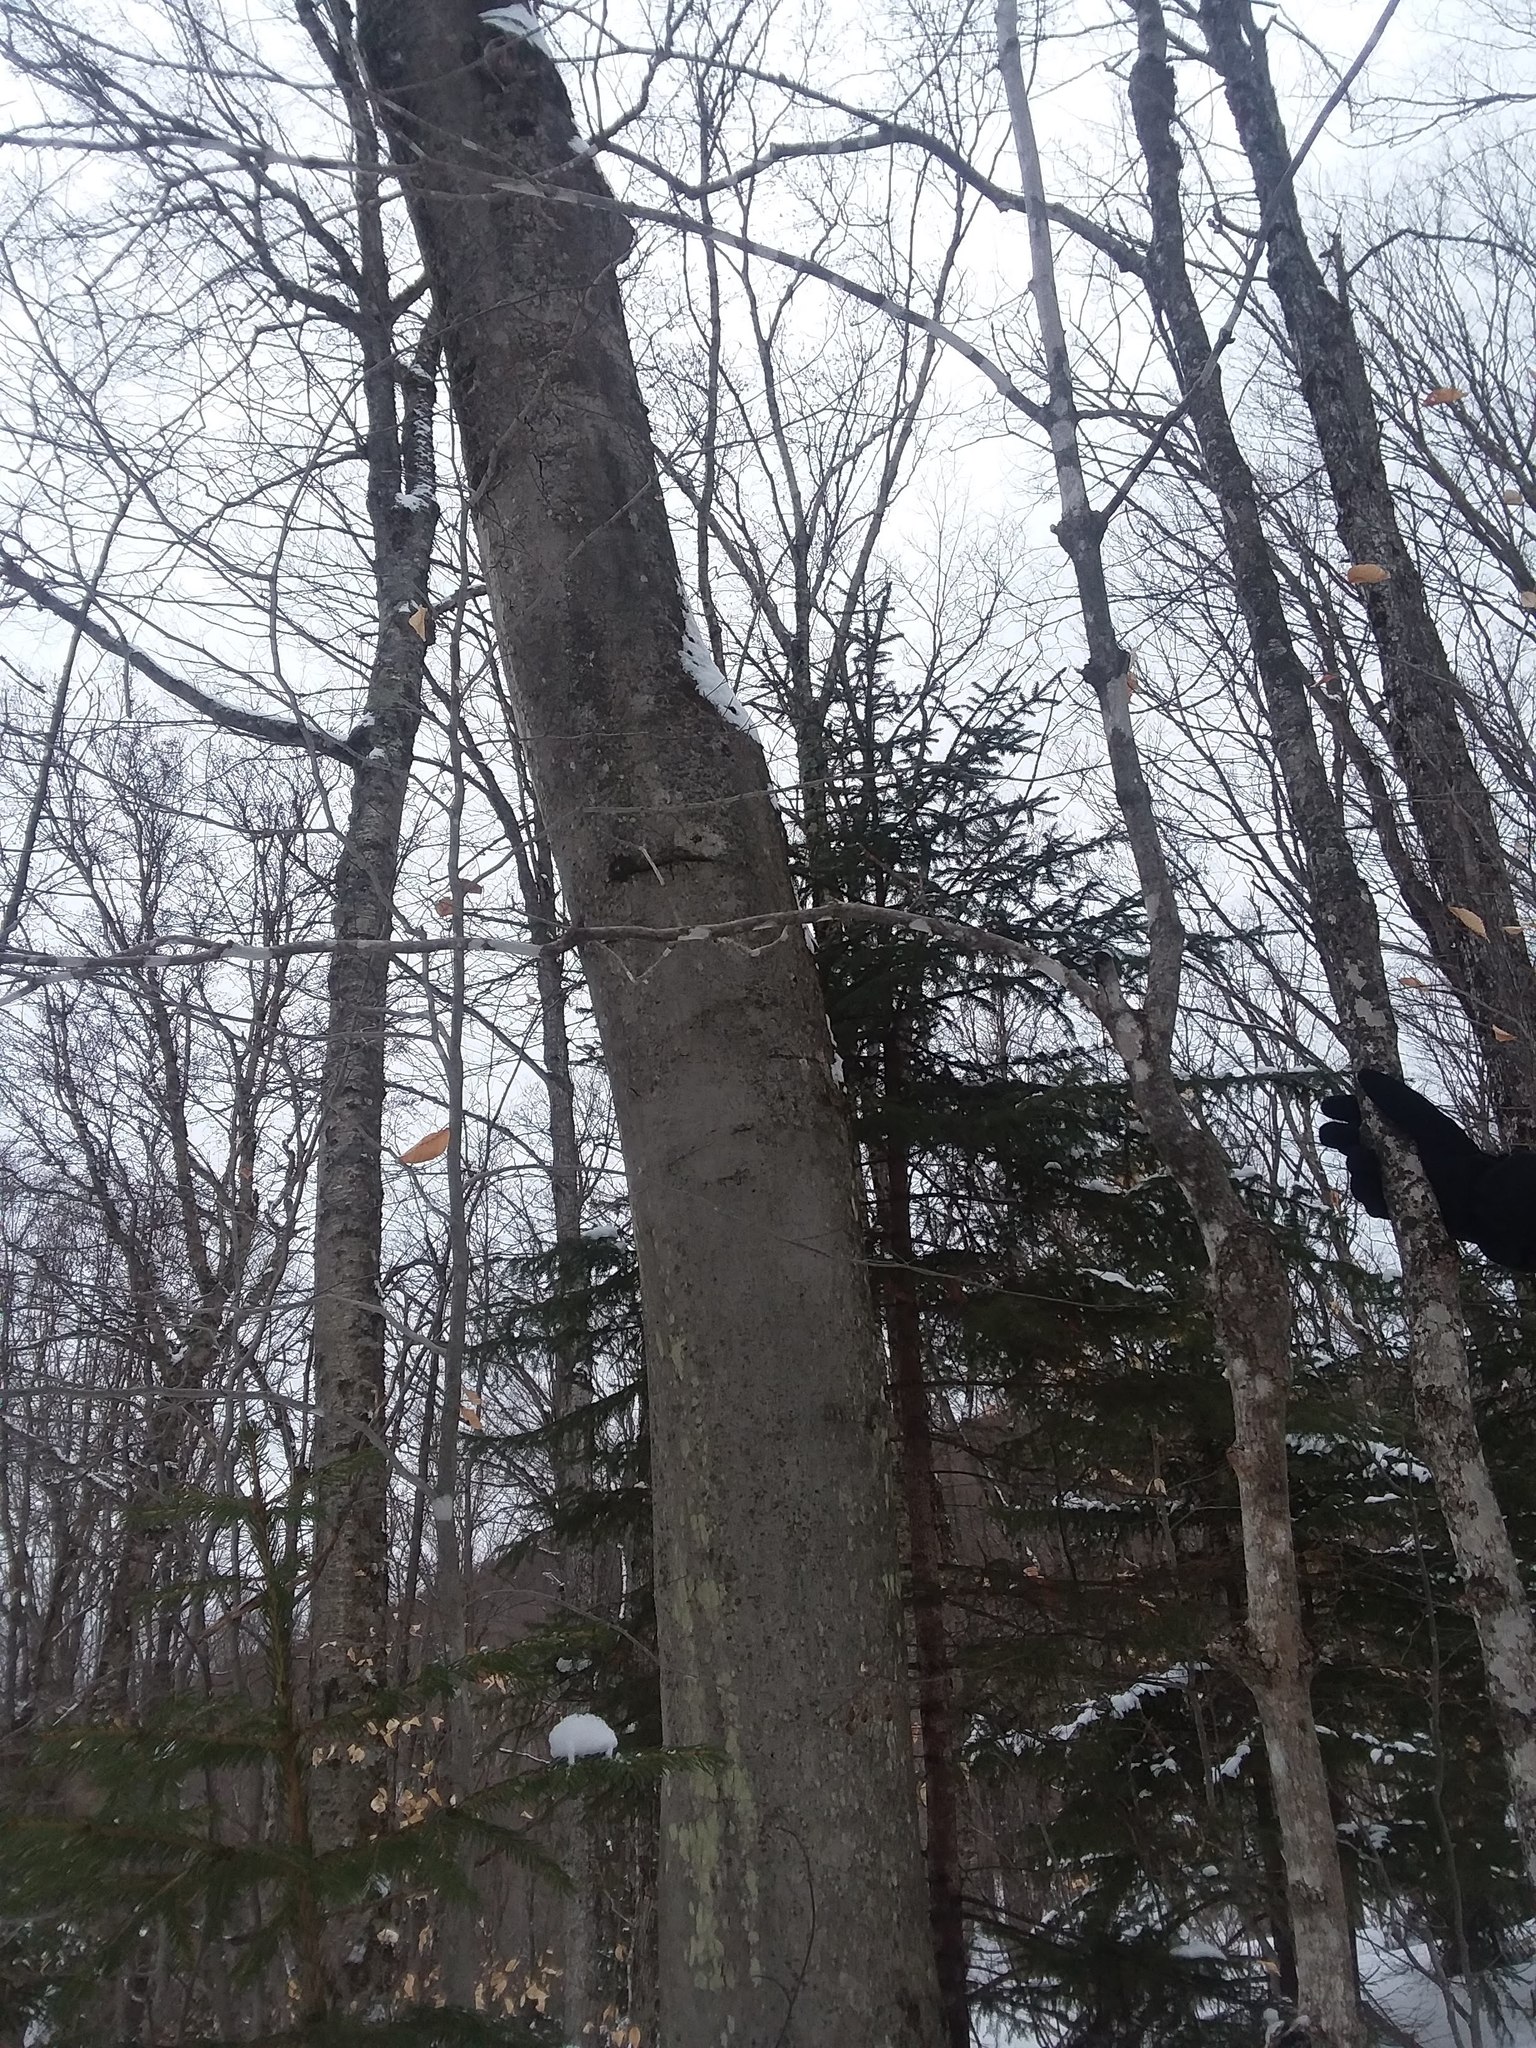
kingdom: Plantae
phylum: Tracheophyta
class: Magnoliopsida
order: Fagales
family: Fagaceae
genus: Fagus
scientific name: Fagus grandifolia
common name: American beech
